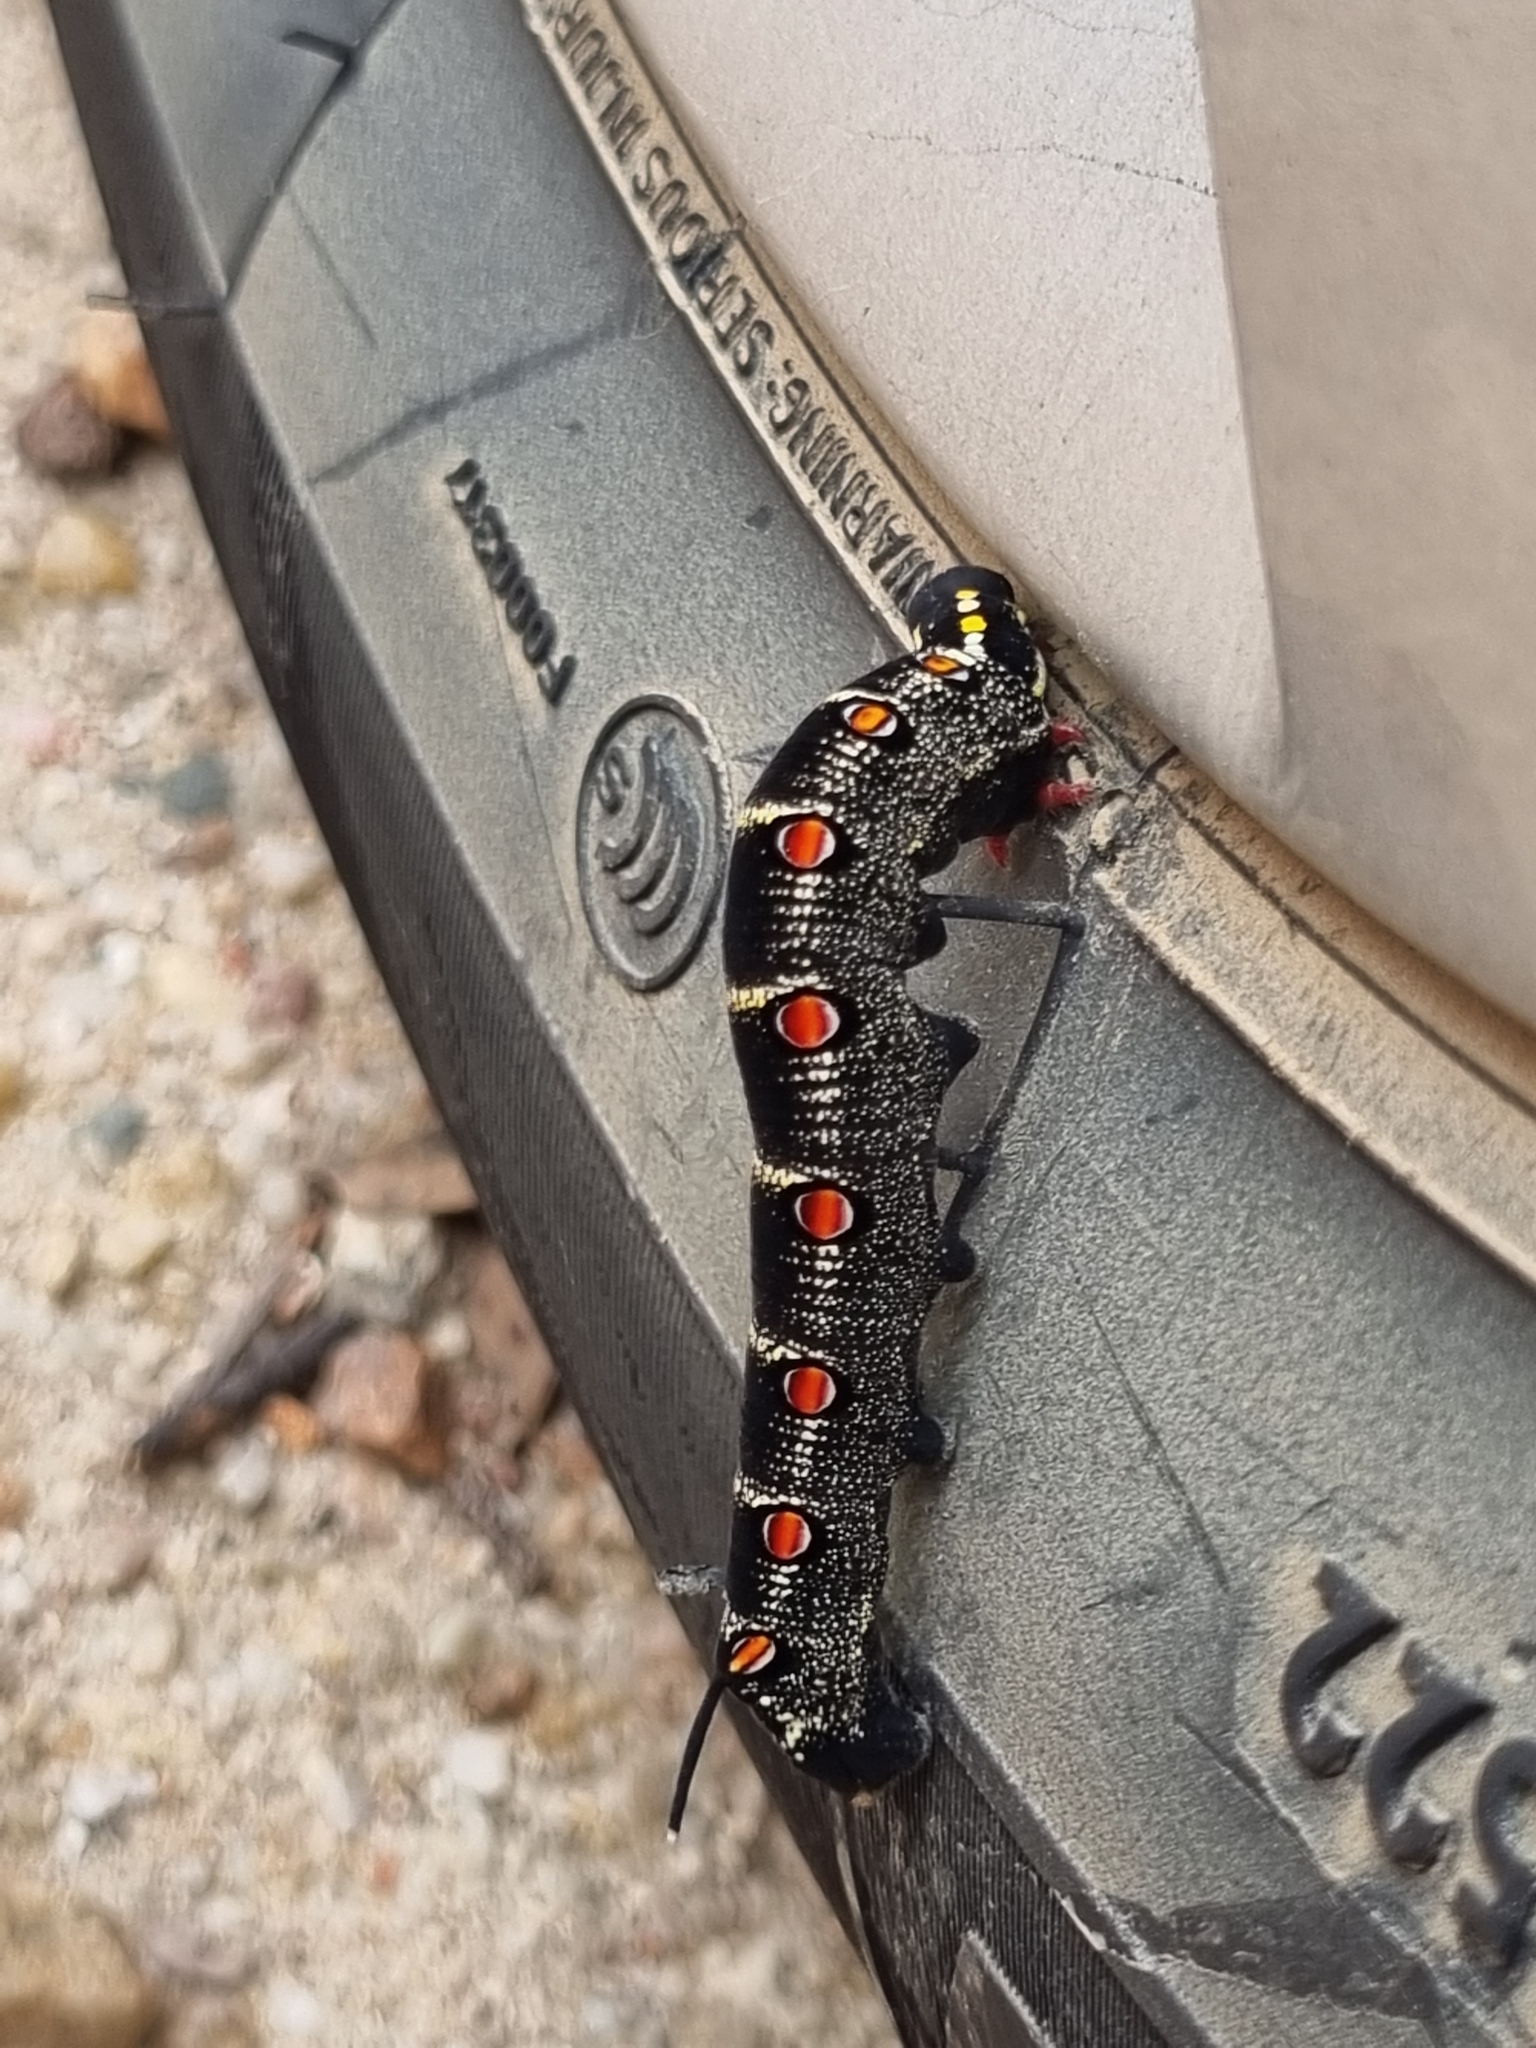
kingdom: Animalia
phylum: Arthropoda
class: Insecta
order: Lepidoptera
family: Sphingidae
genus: Theretra
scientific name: Theretra oldenlandiae
